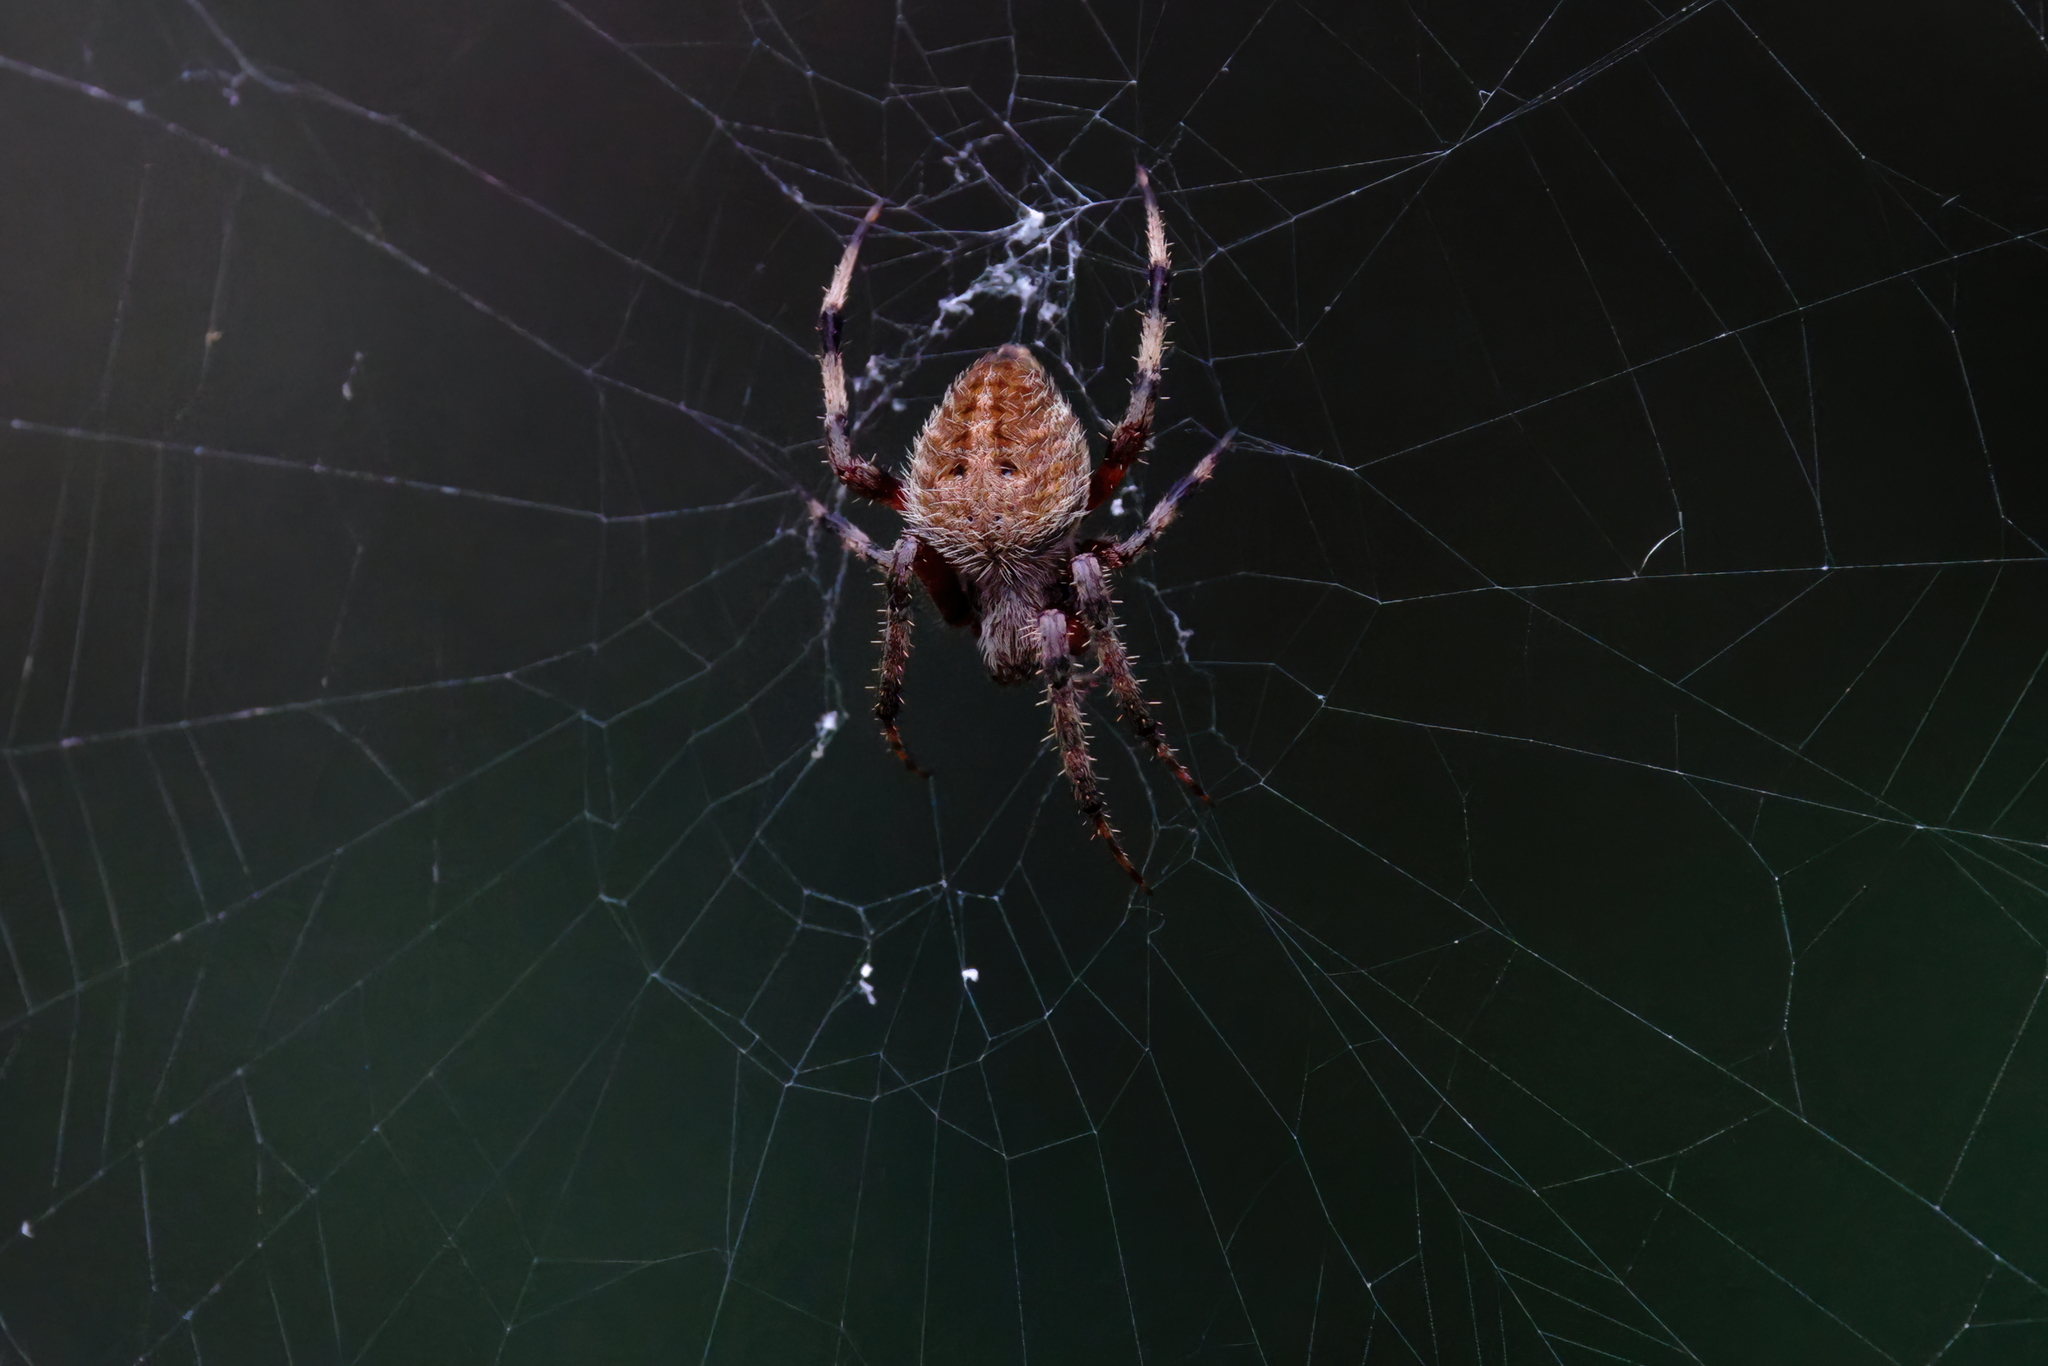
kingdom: Animalia
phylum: Arthropoda
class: Arachnida
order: Araneae
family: Araneidae
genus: Neoscona
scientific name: Neoscona crucifera
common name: Spotted orbweaver
